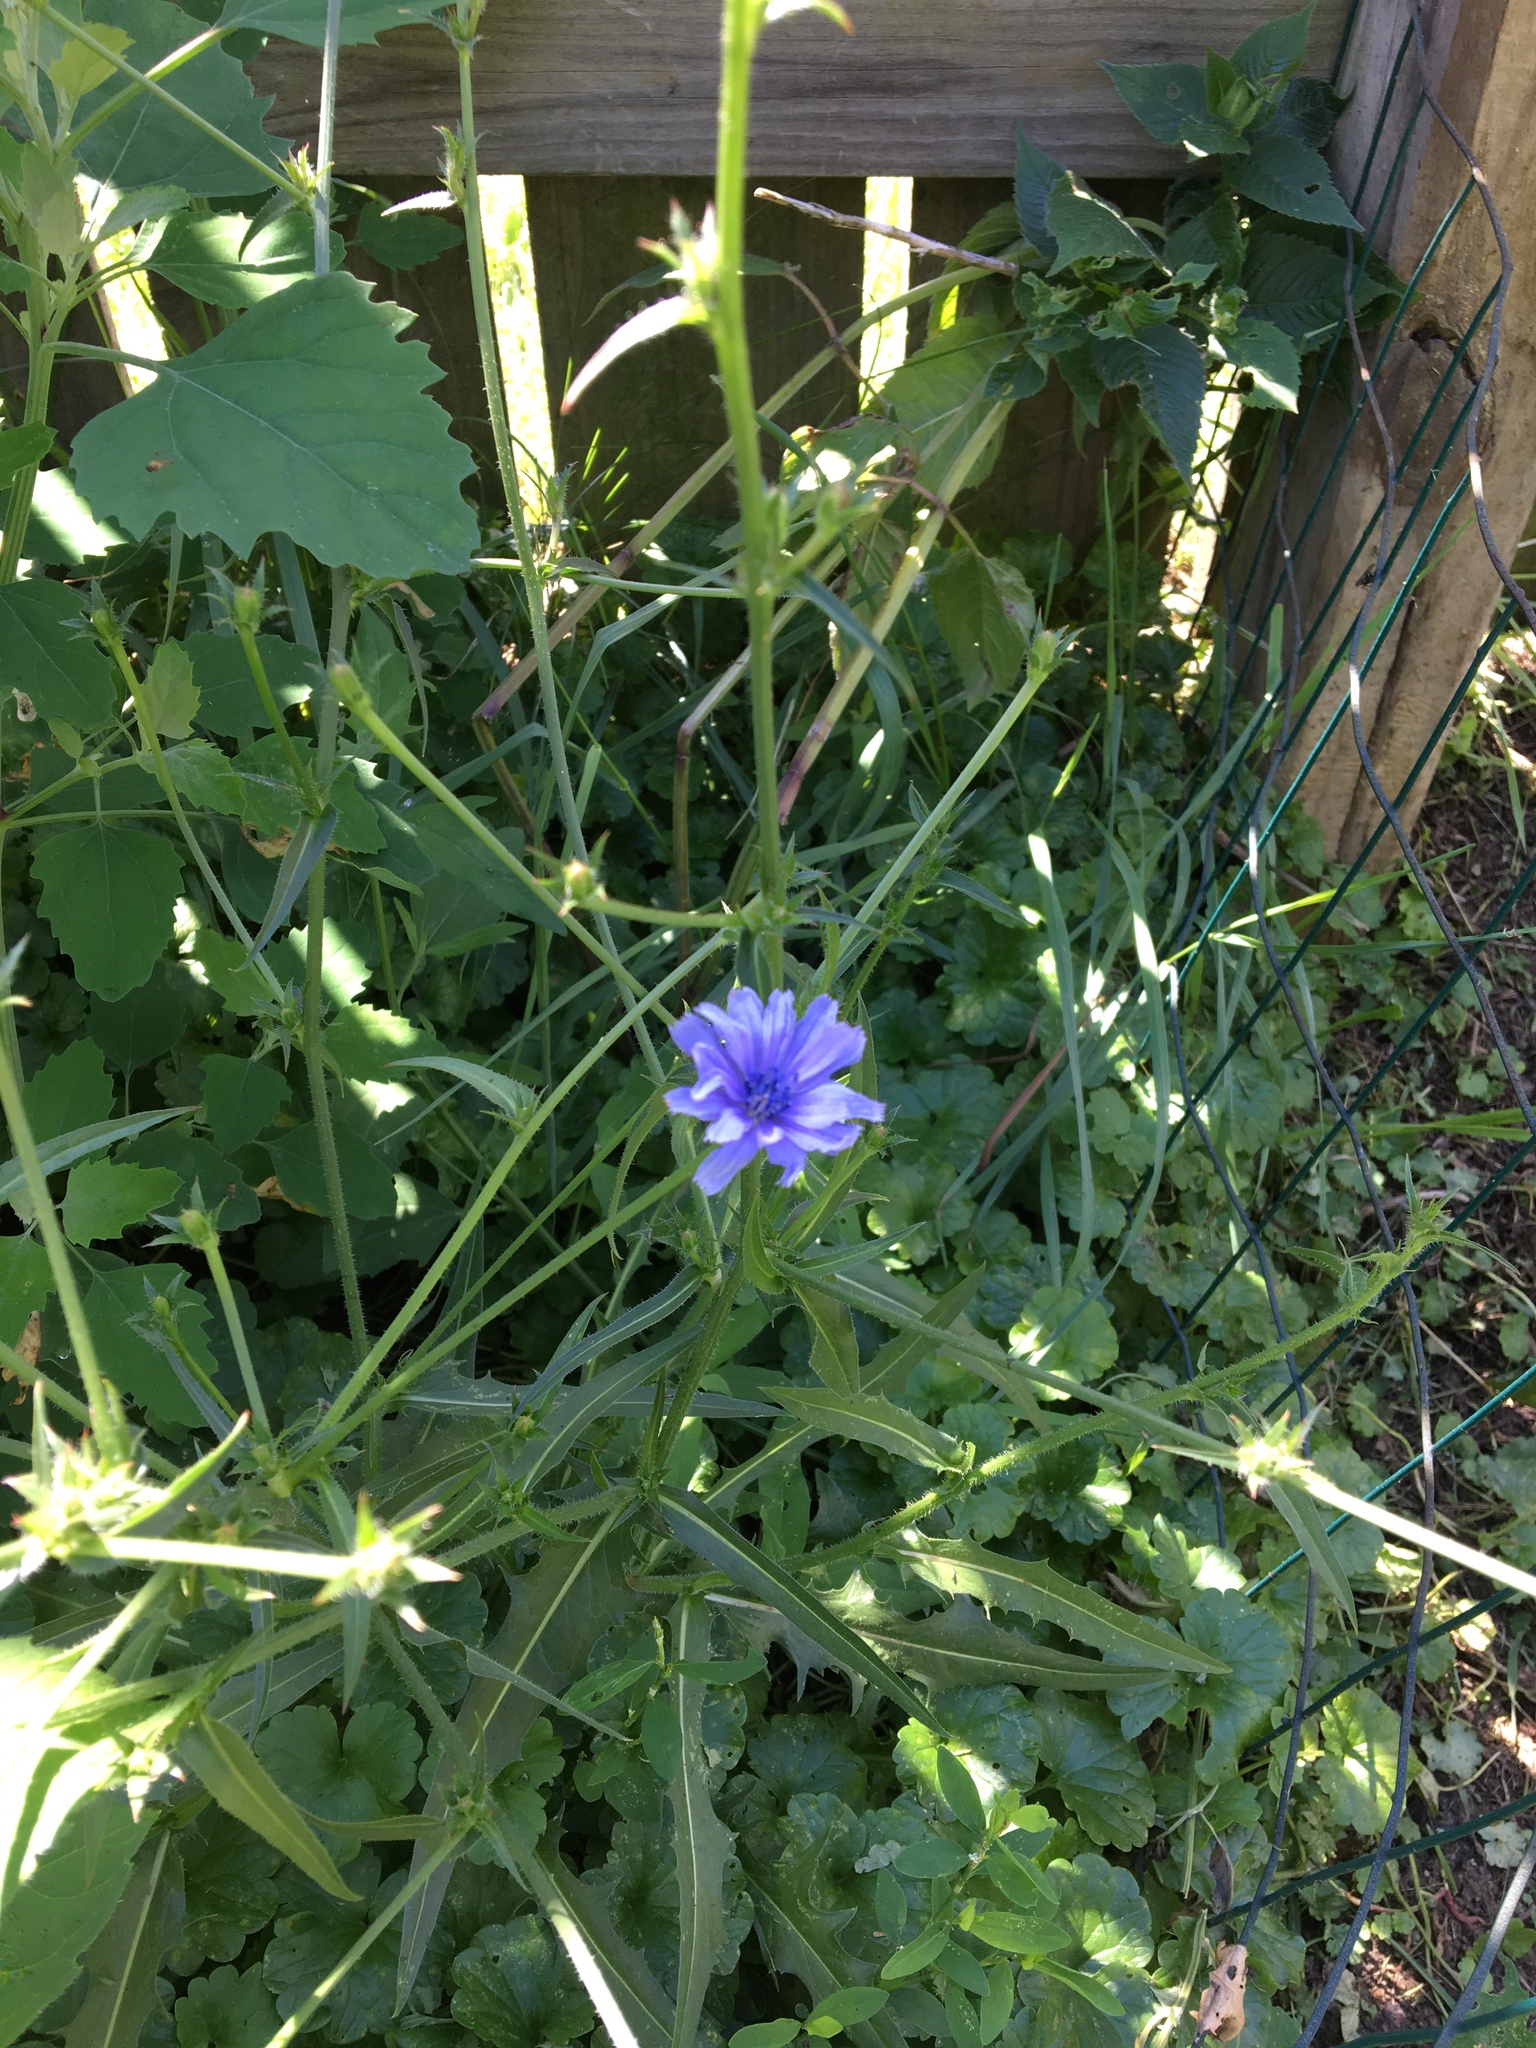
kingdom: Plantae
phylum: Tracheophyta
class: Magnoliopsida
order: Asterales
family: Asteraceae
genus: Cichorium
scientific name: Cichorium intybus
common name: Chicory
